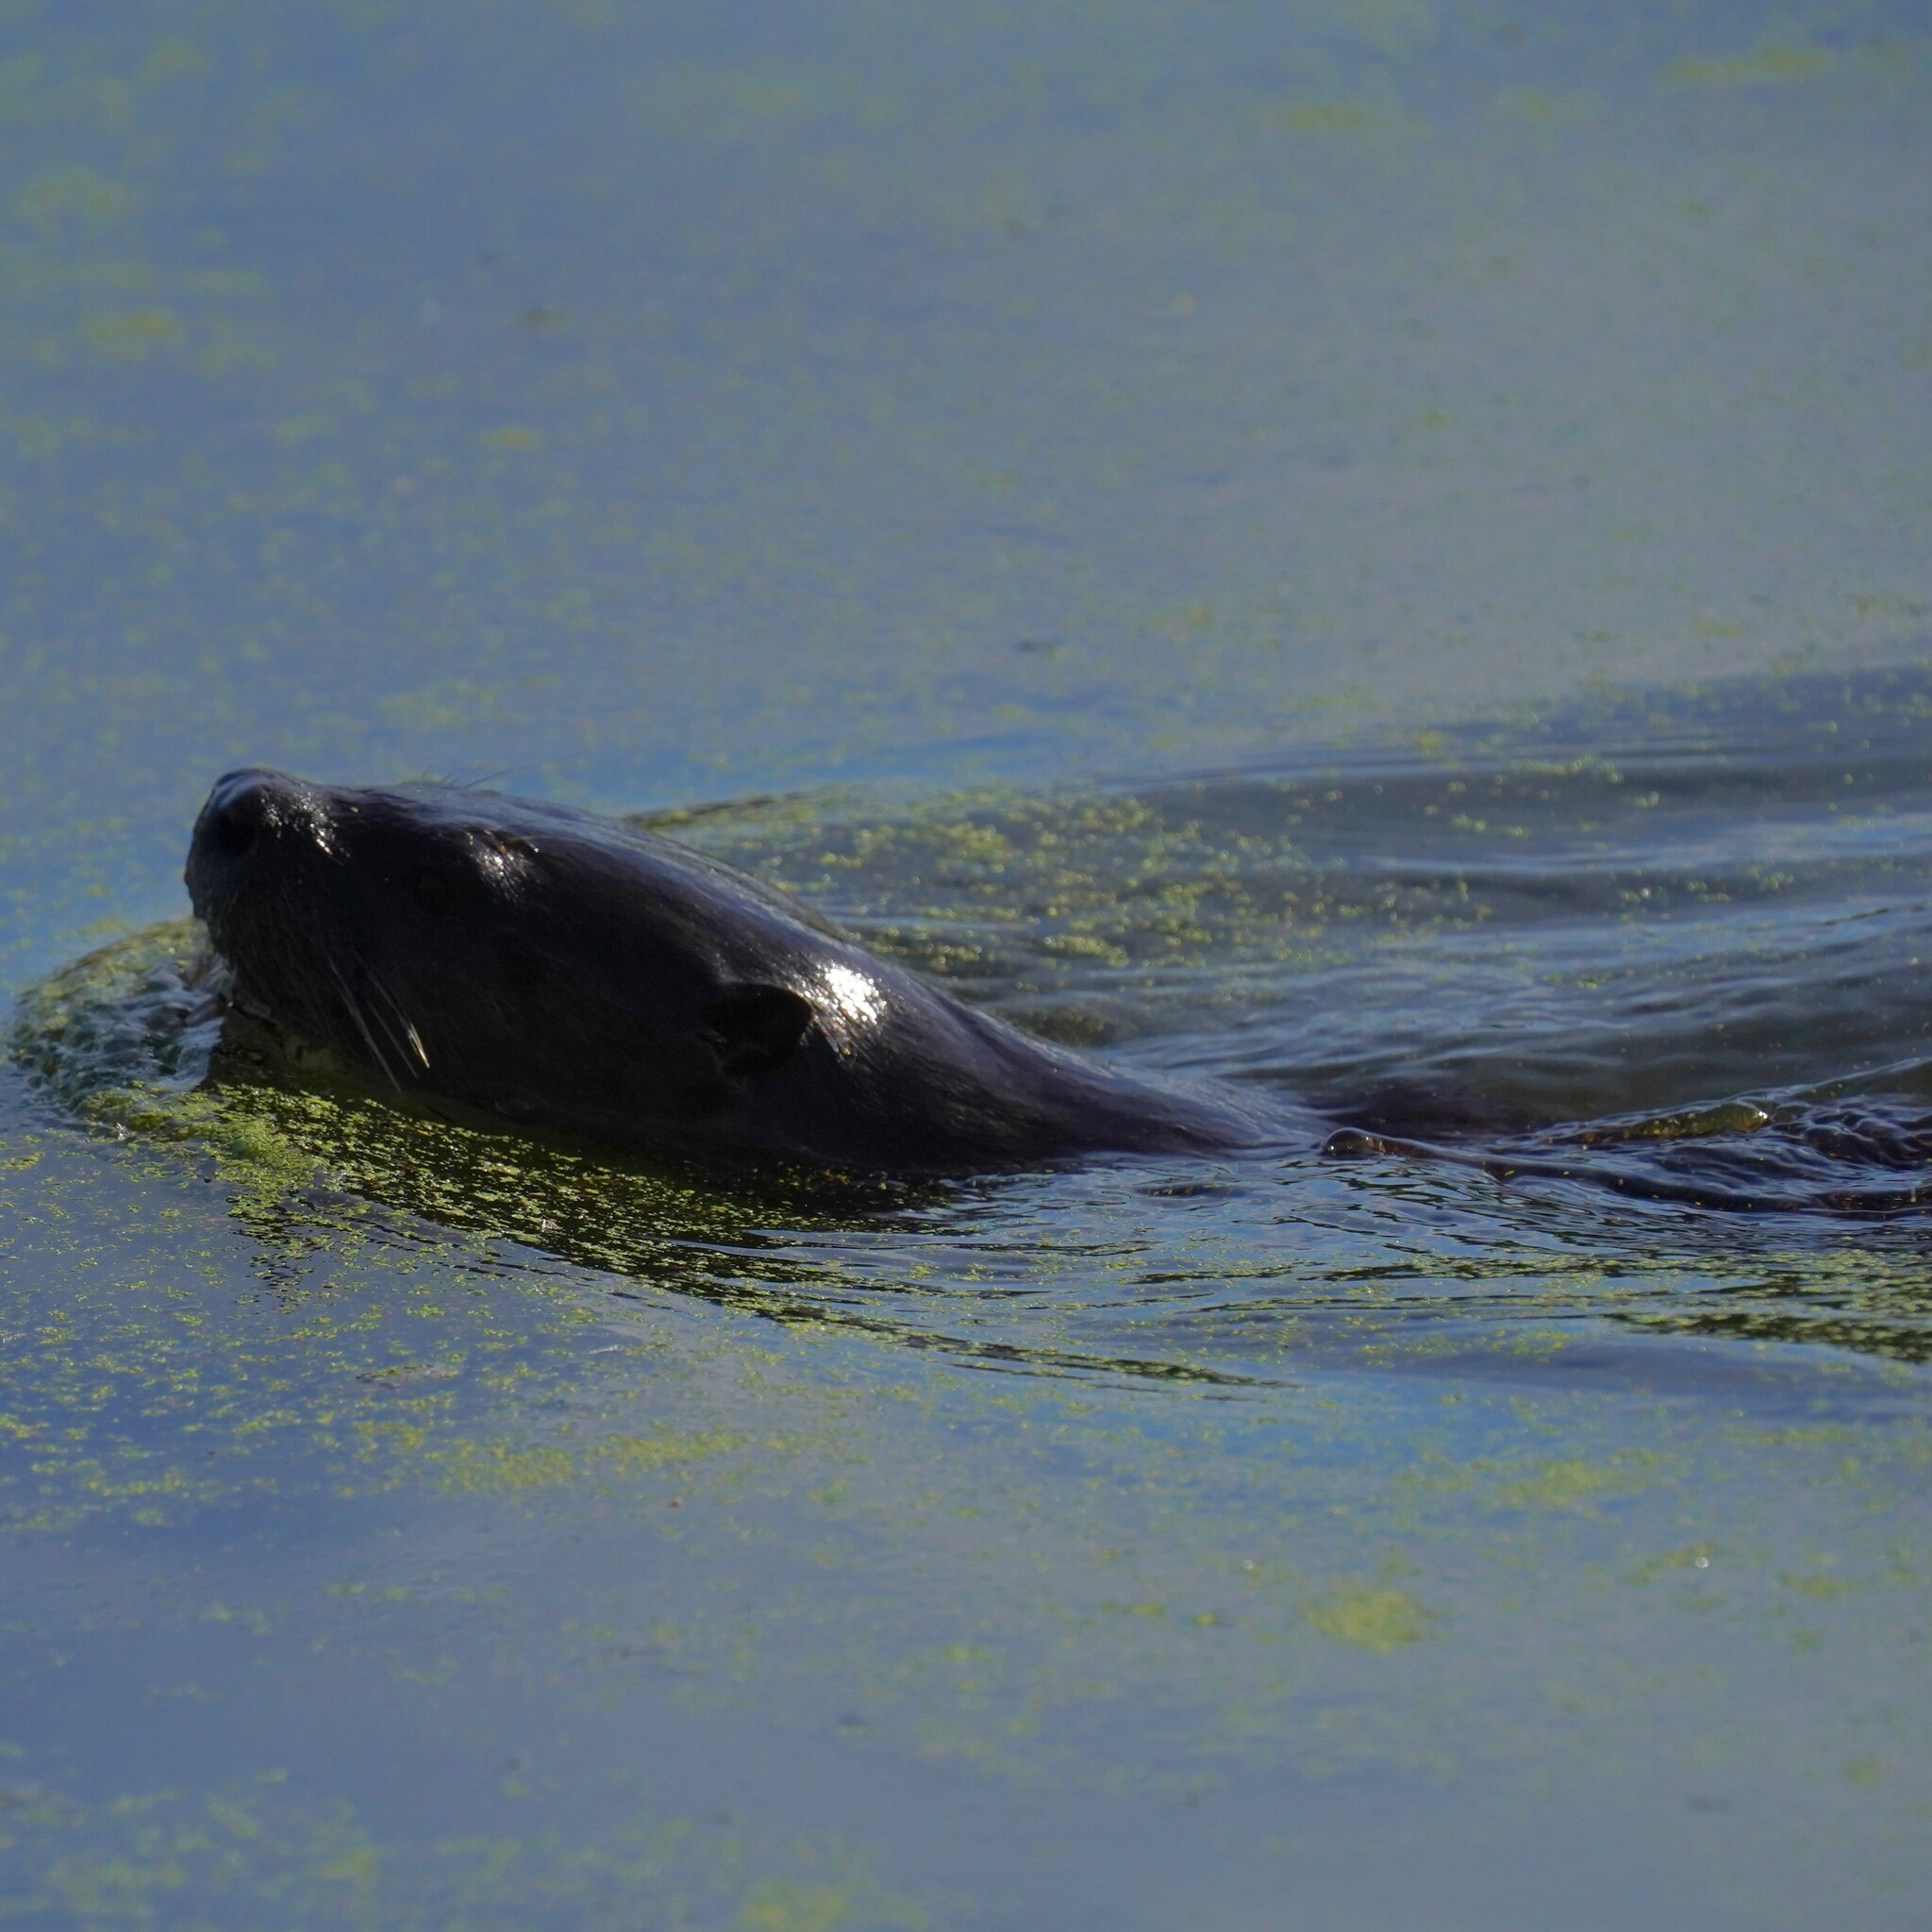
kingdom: Animalia
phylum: Chordata
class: Mammalia
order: Carnivora
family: Mustelidae
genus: Lontra
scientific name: Lontra canadensis
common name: North american river otter
